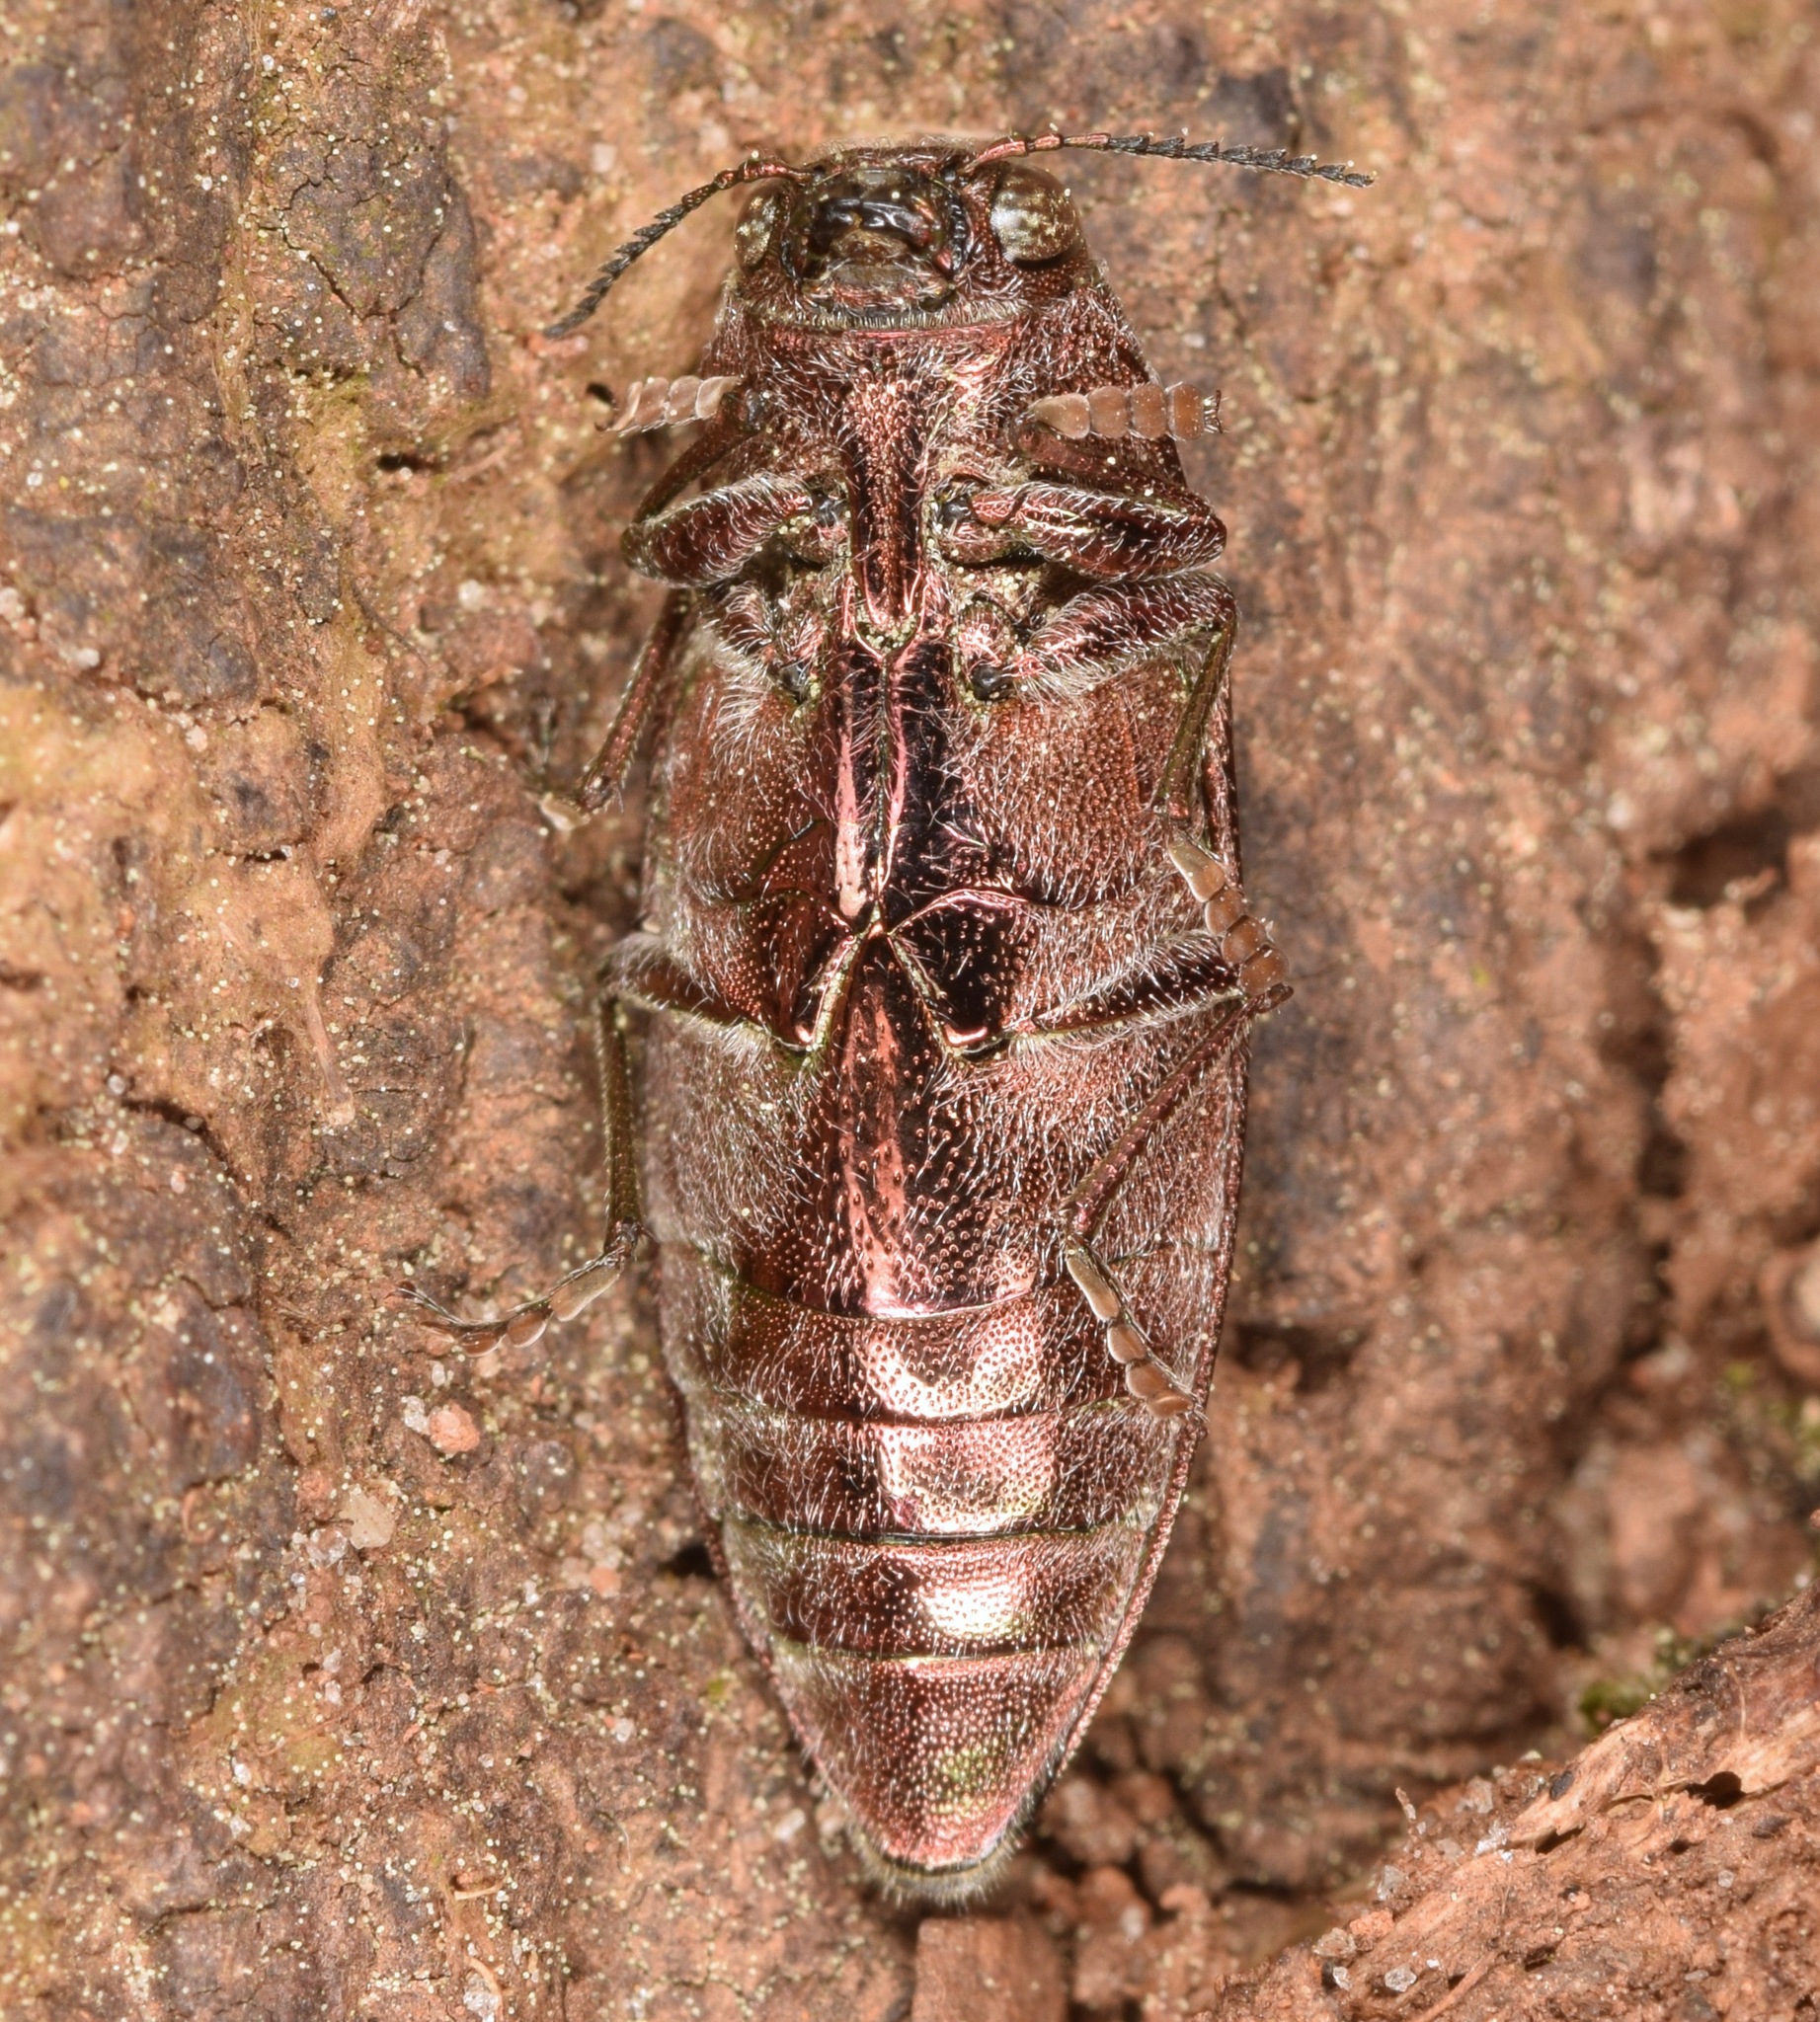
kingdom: Animalia
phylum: Arthropoda
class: Insecta
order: Coleoptera
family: Buprestidae
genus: Buprestis
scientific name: Buprestis striata
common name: Striated jewel beetle
